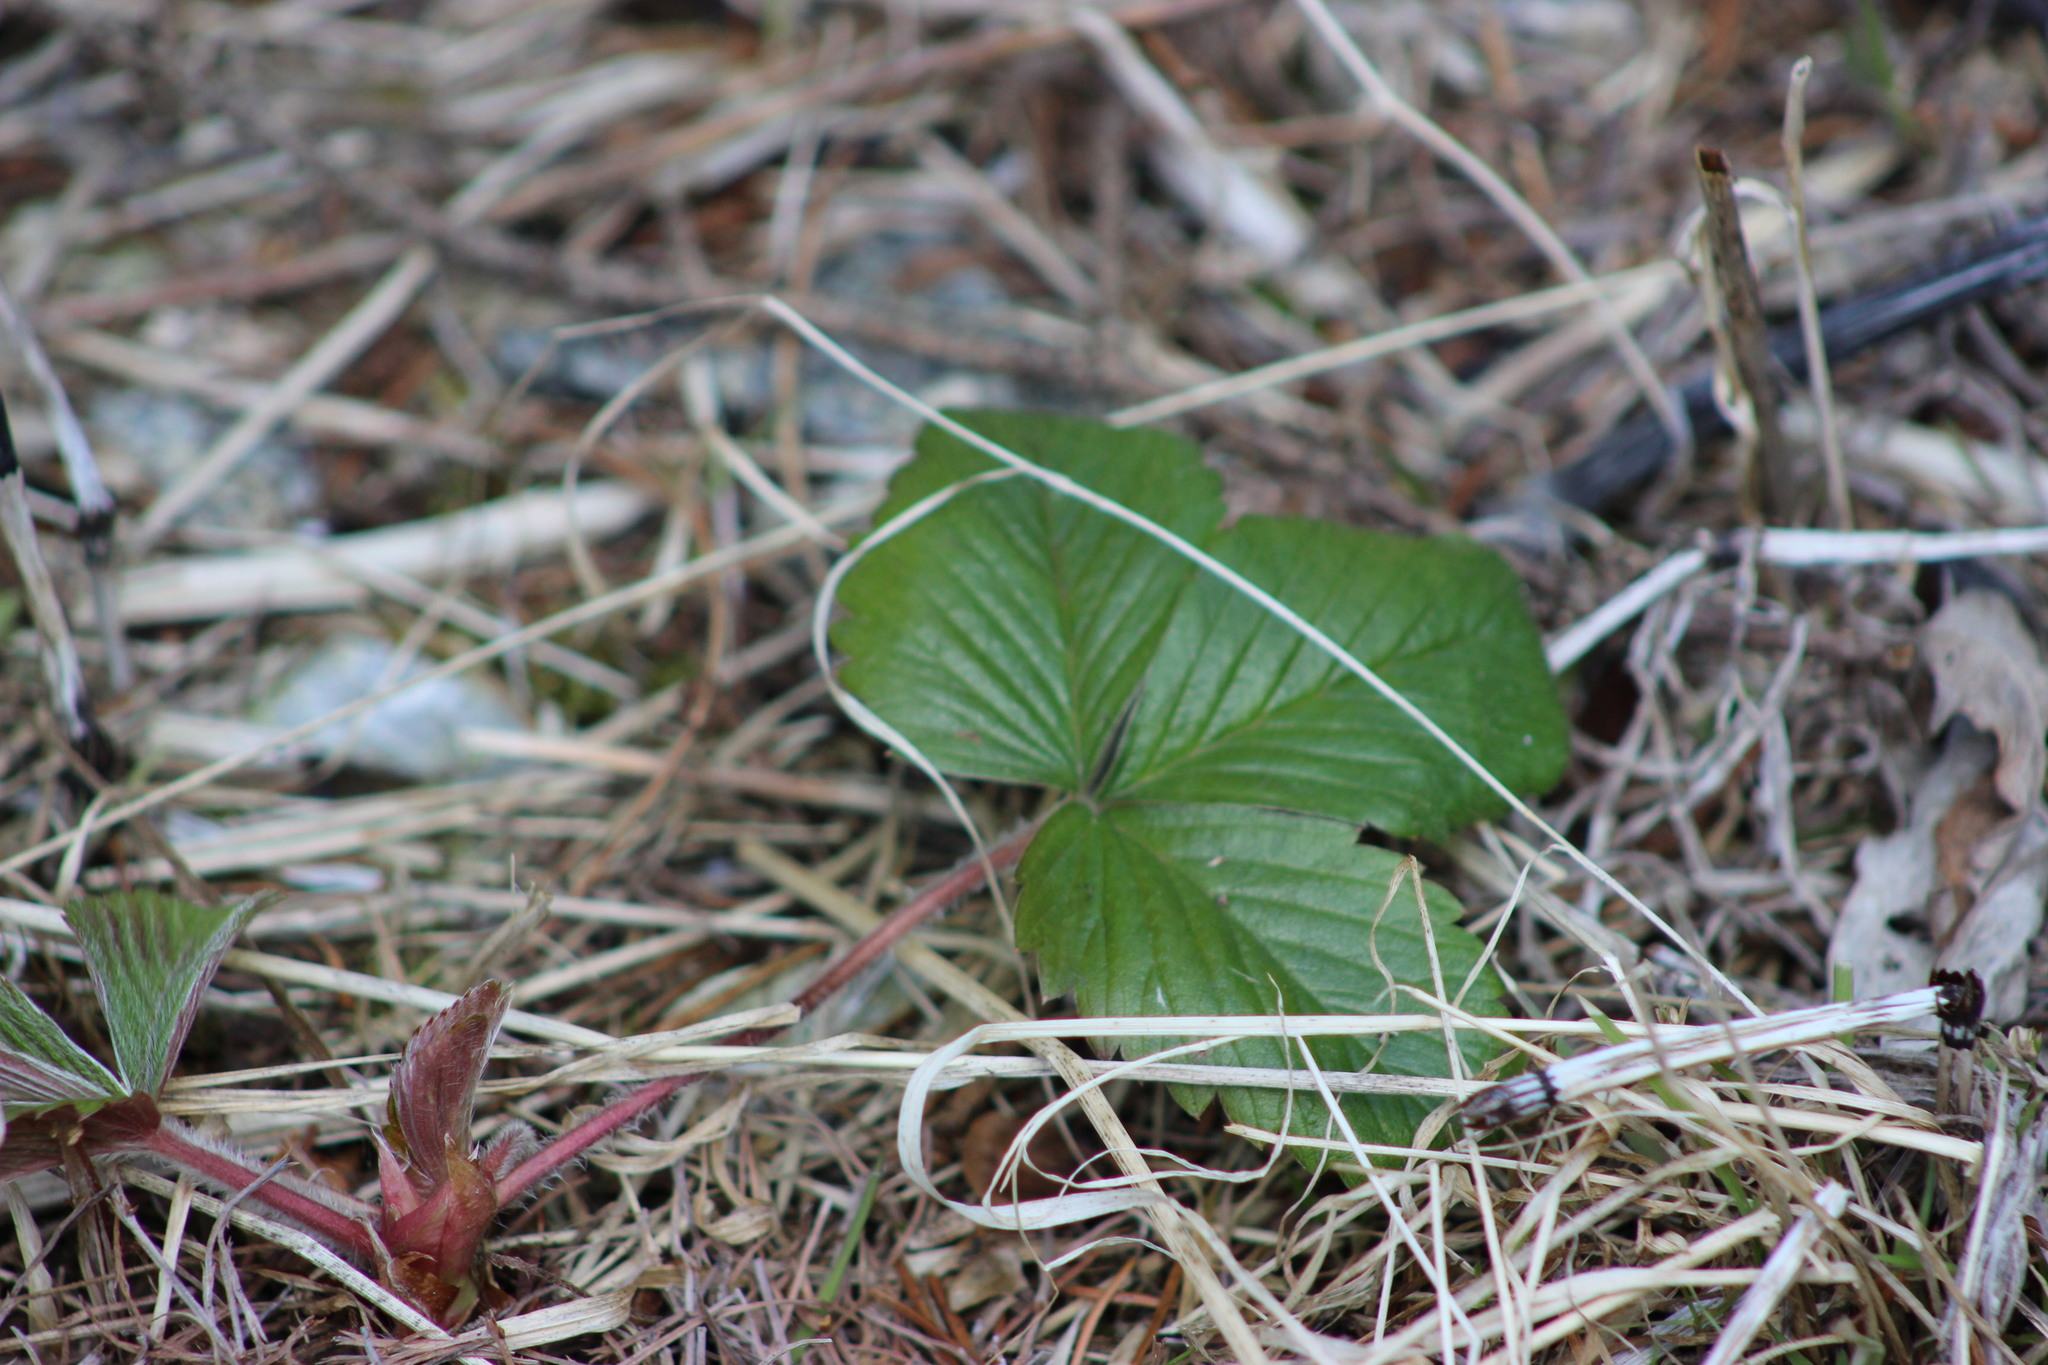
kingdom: Plantae
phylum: Tracheophyta
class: Magnoliopsida
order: Rosales
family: Rosaceae
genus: Fragaria
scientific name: Fragaria vesca
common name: Wild strawberry
